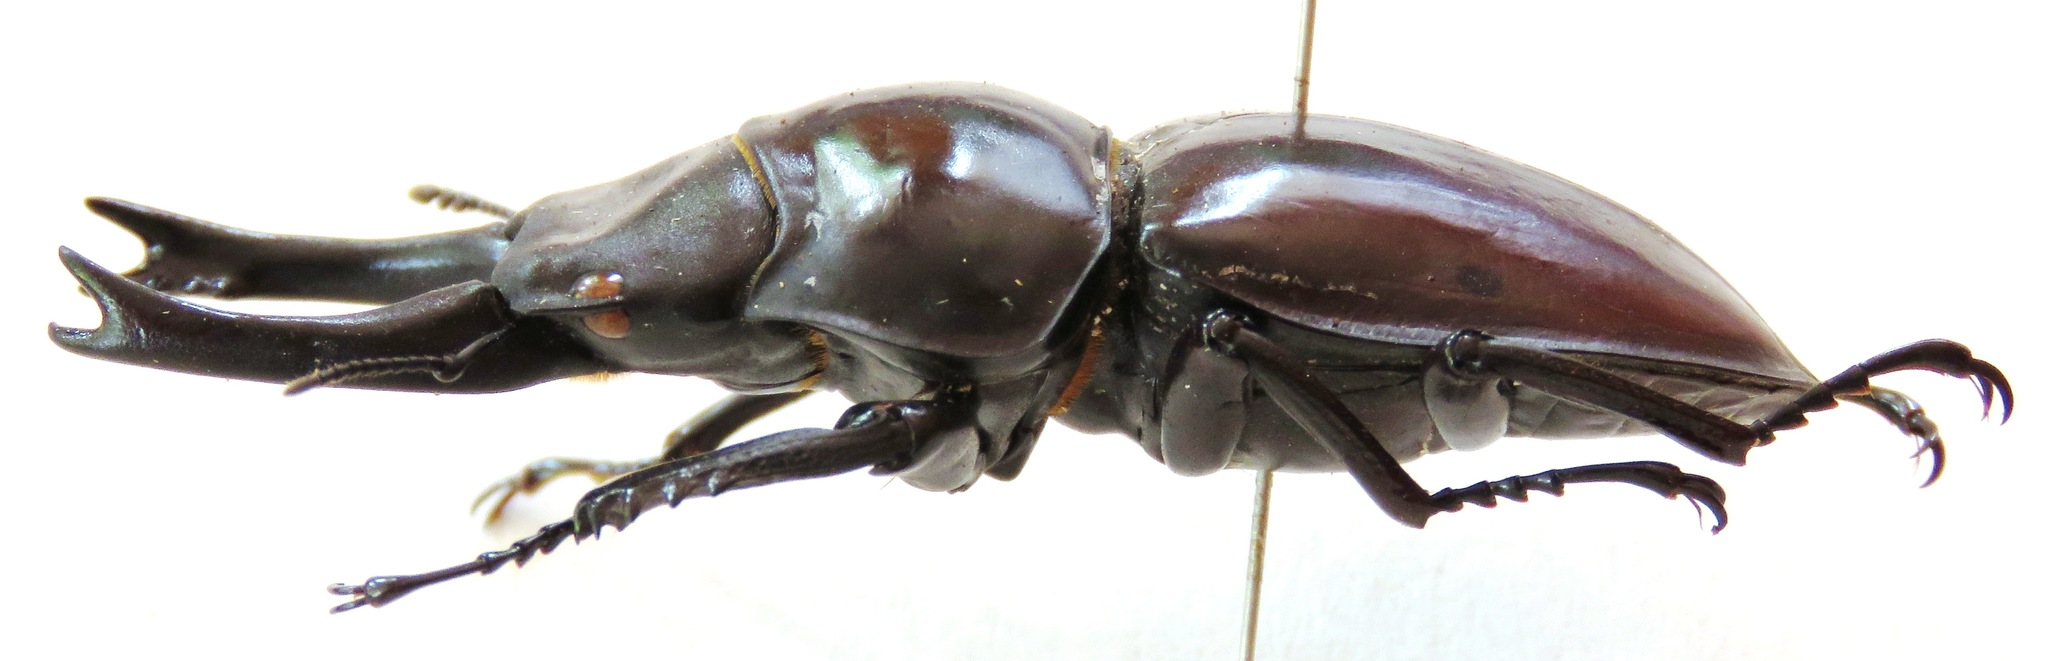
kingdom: Animalia
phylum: Arthropoda
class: Insecta
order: Coleoptera
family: Lucanidae
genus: Neolucanus
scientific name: Neolucanus fuscus
